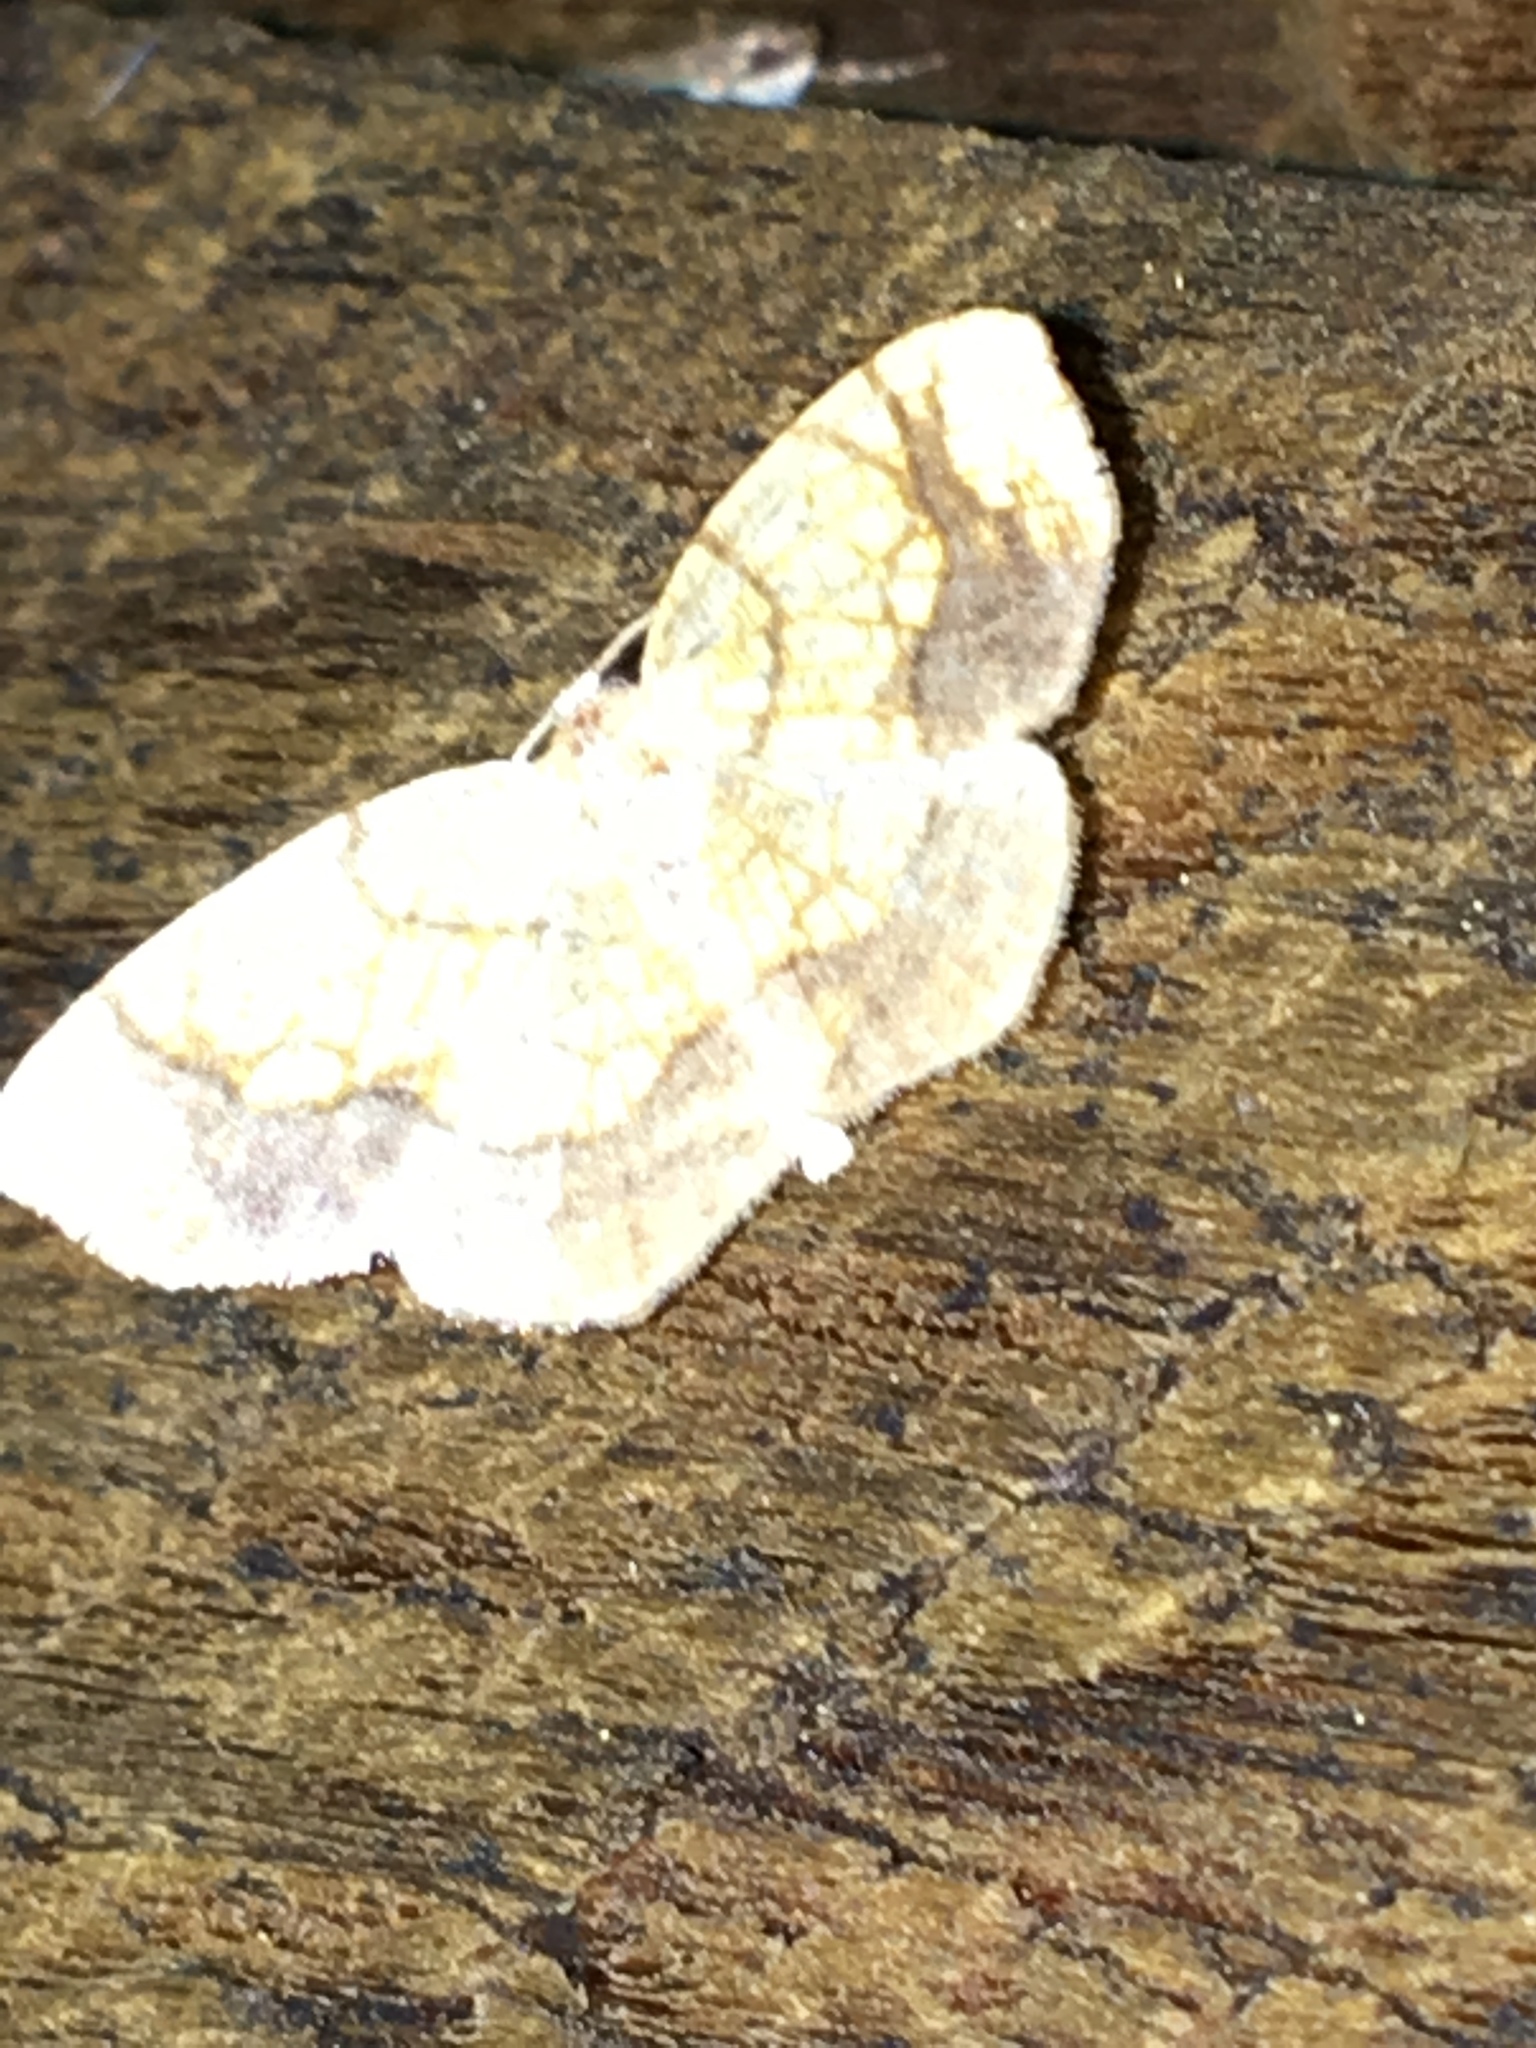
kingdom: Animalia
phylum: Arthropoda
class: Insecta
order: Lepidoptera
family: Geometridae
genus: Nematocampa
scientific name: Nematocampa resistaria
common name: Horned spanworm moth
